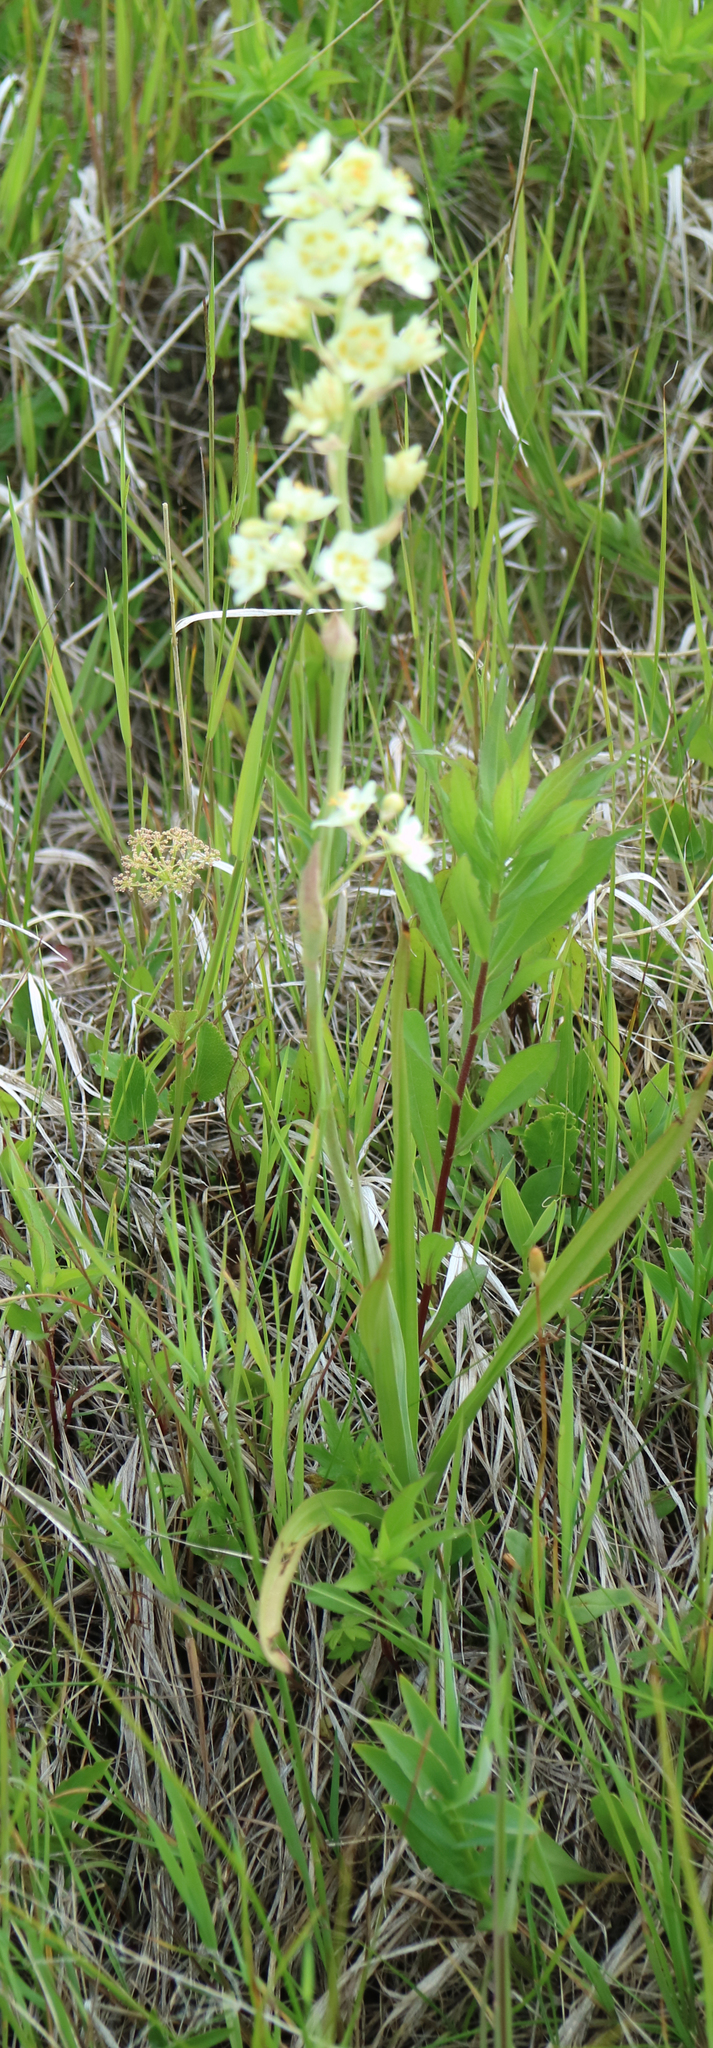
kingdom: Plantae
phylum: Tracheophyta
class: Liliopsida
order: Liliales
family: Melanthiaceae
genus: Anticlea
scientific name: Anticlea elegans
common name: Mountain death camas
